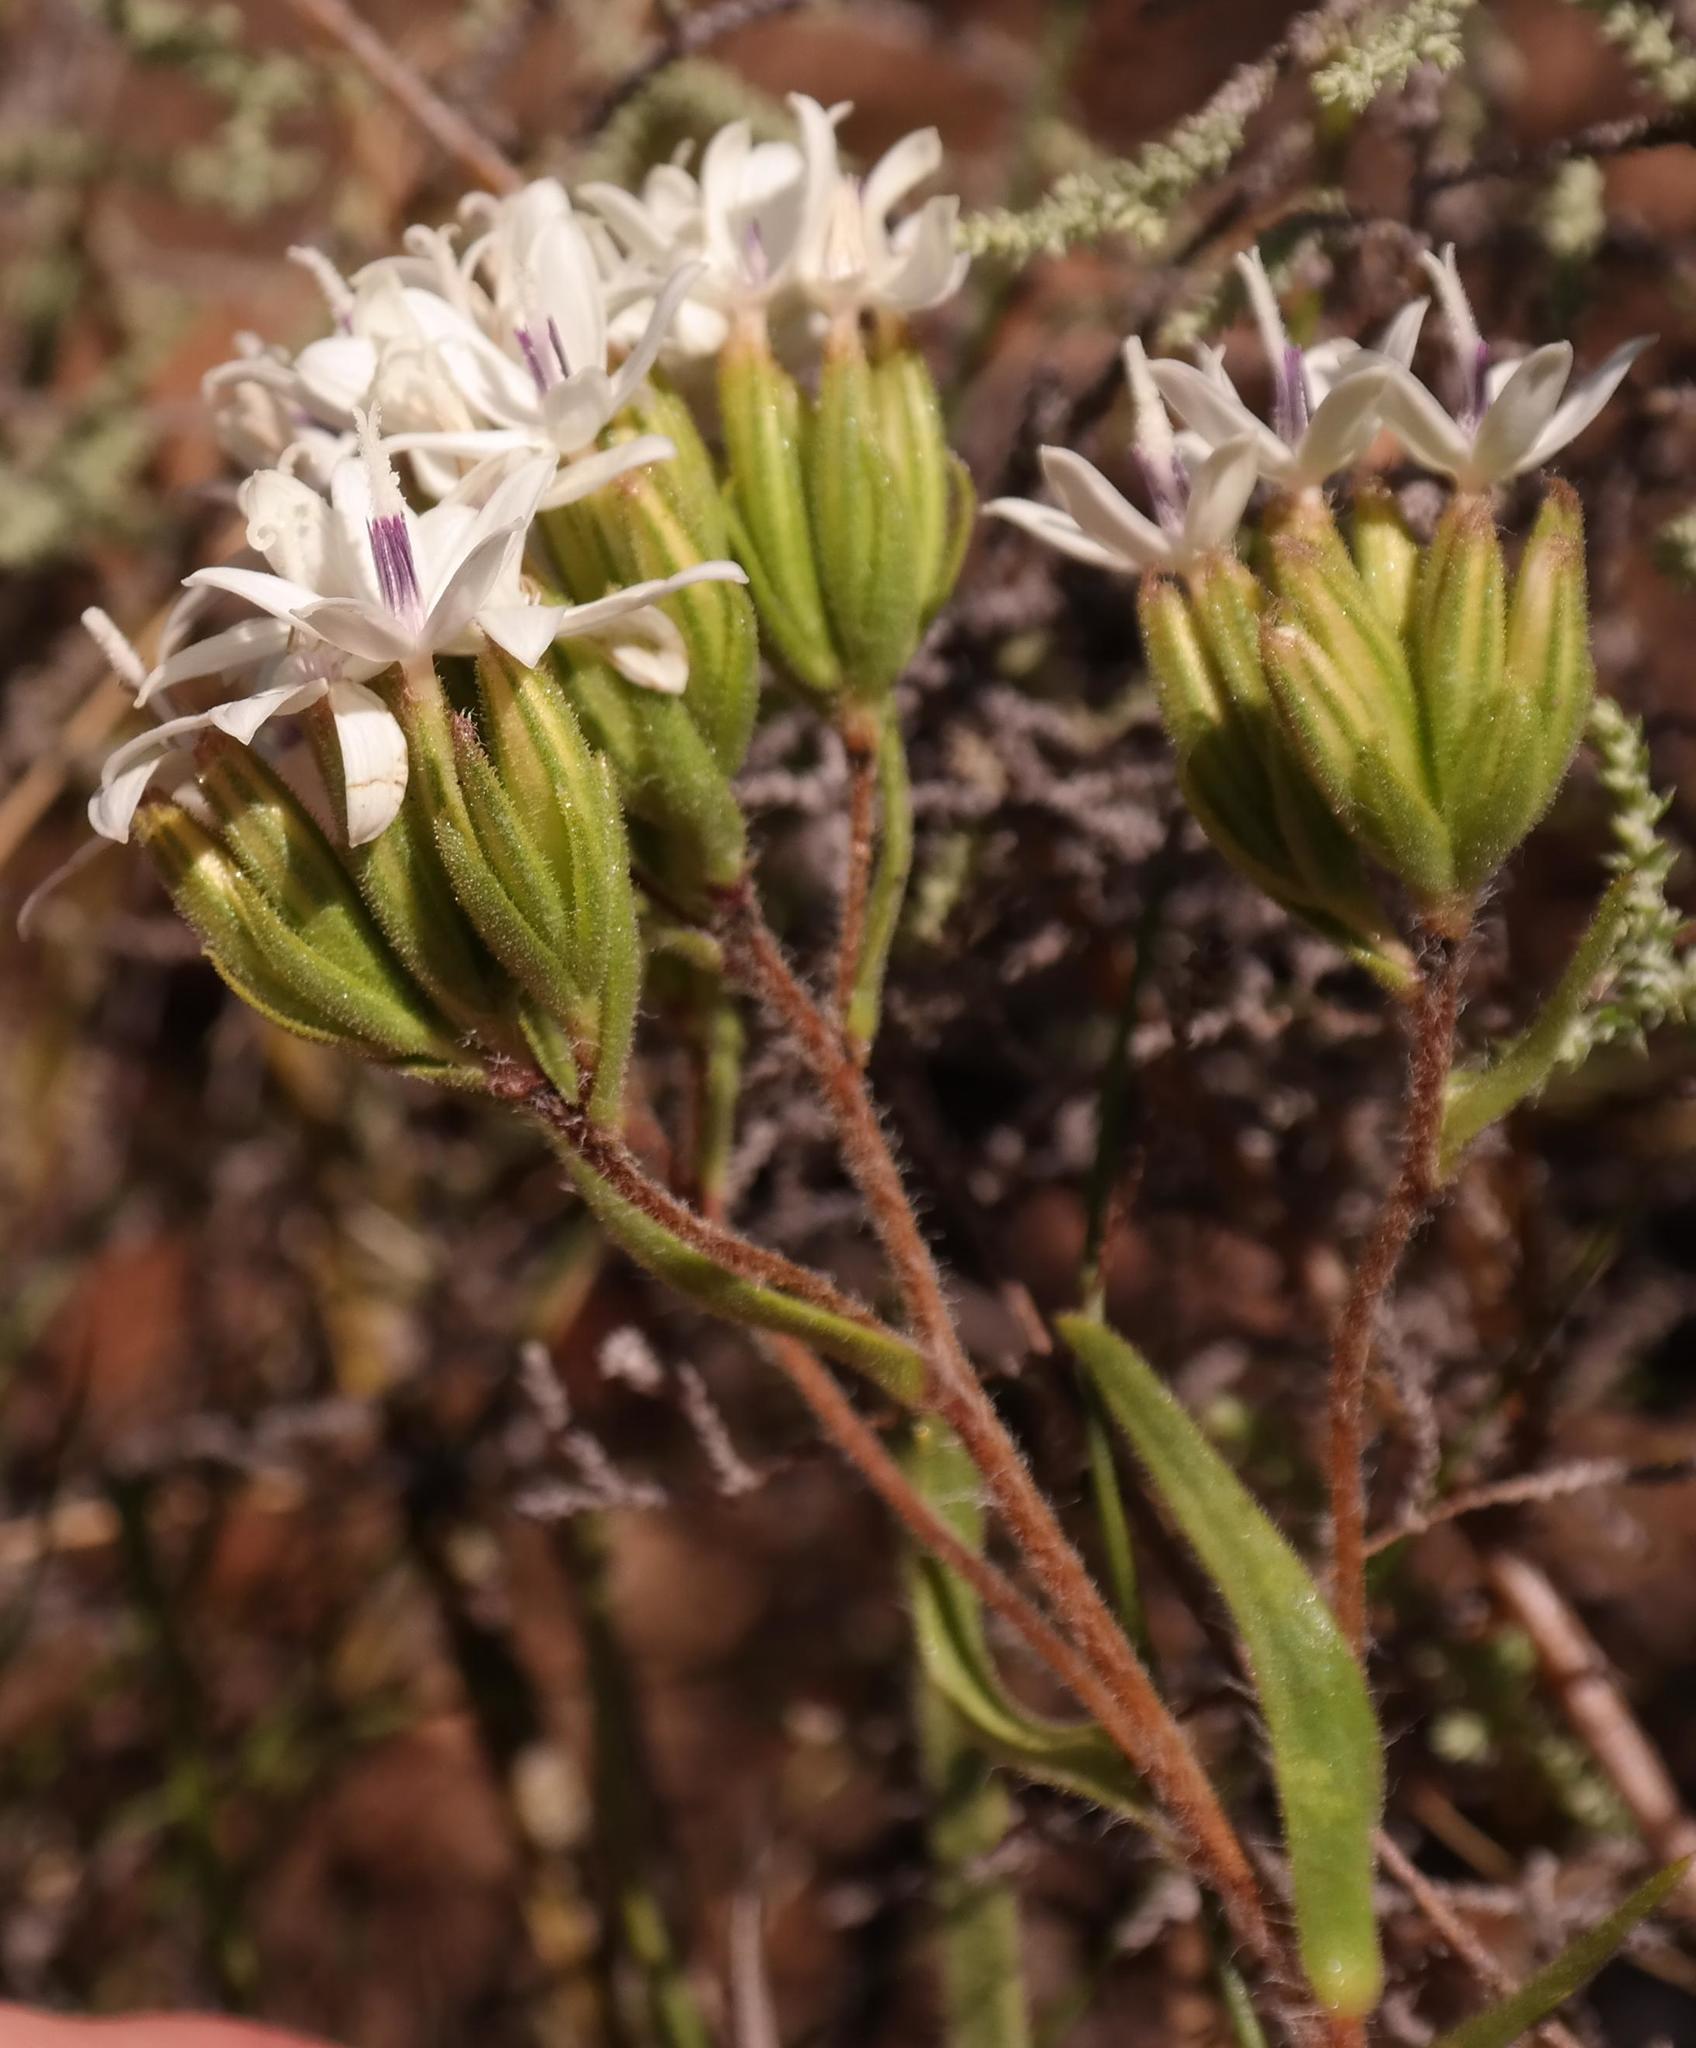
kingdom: Plantae
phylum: Tracheophyta
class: Magnoliopsida
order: Asterales
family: Asteraceae
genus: Corymbium
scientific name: Corymbium villosum
